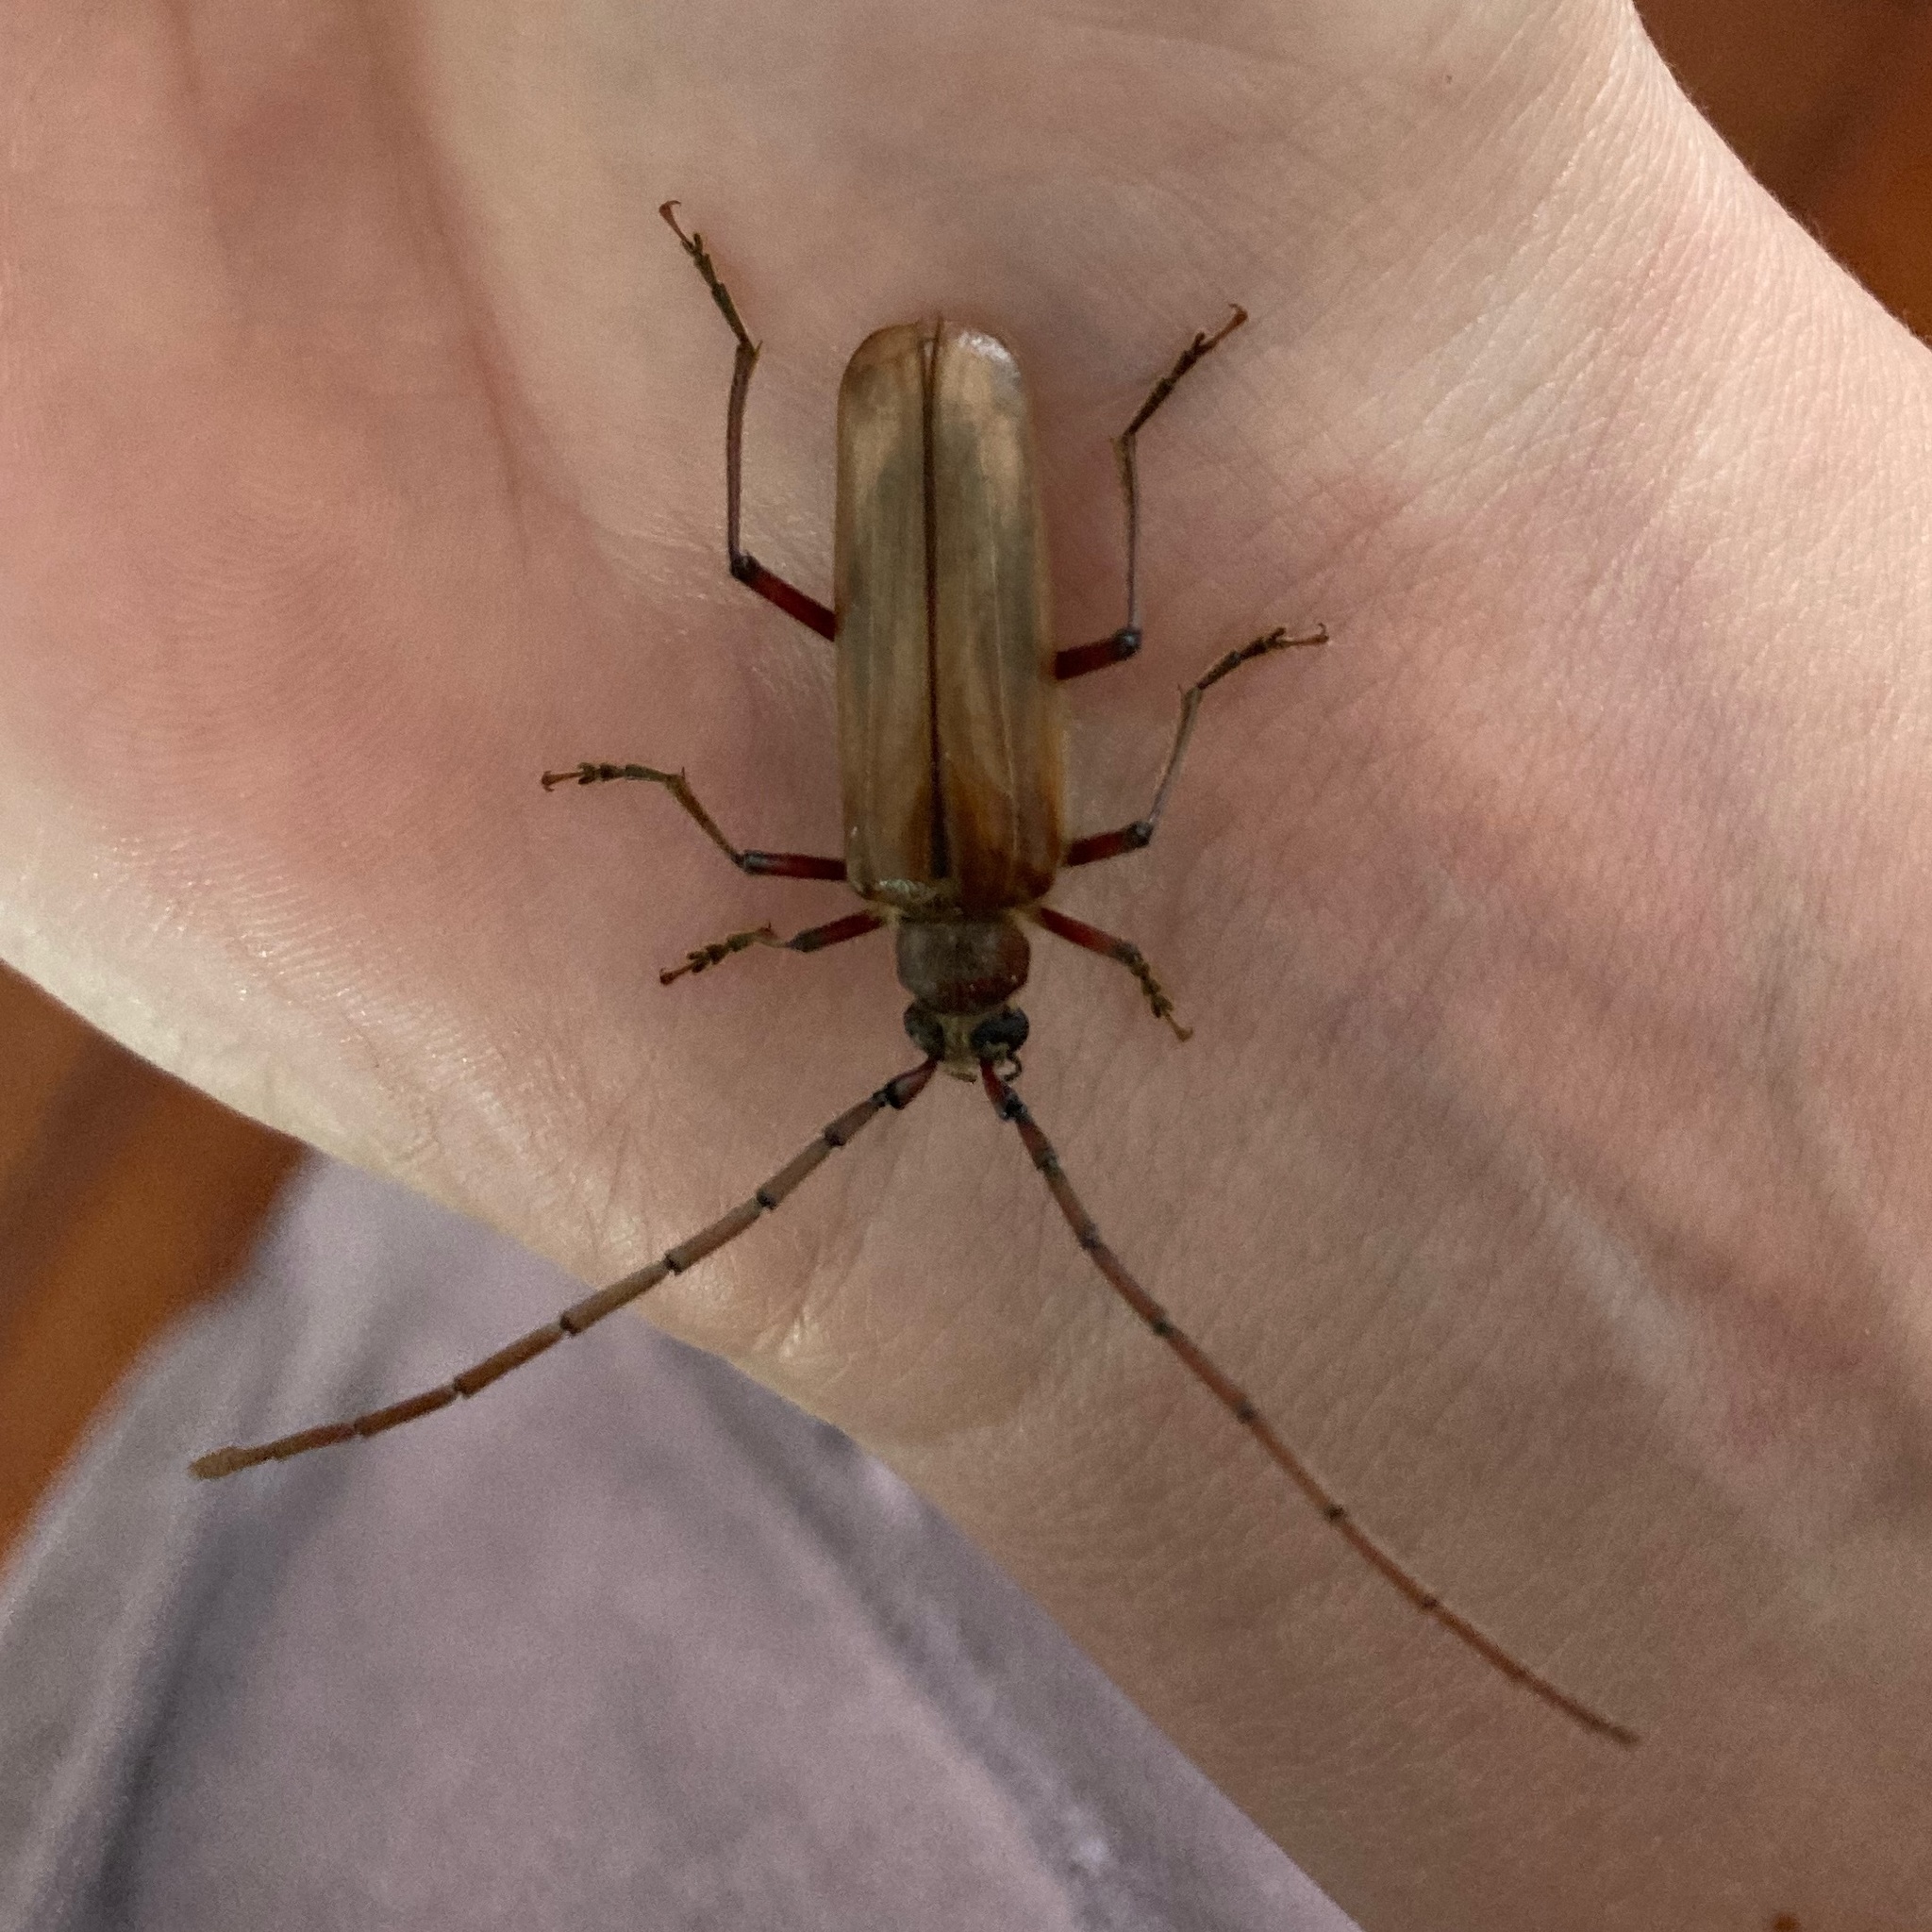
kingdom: Animalia
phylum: Arthropoda
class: Insecta
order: Coleoptera
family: Cerambycidae
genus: Ochrocydus
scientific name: Ochrocydus huttoni
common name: Kanuka longhorn
